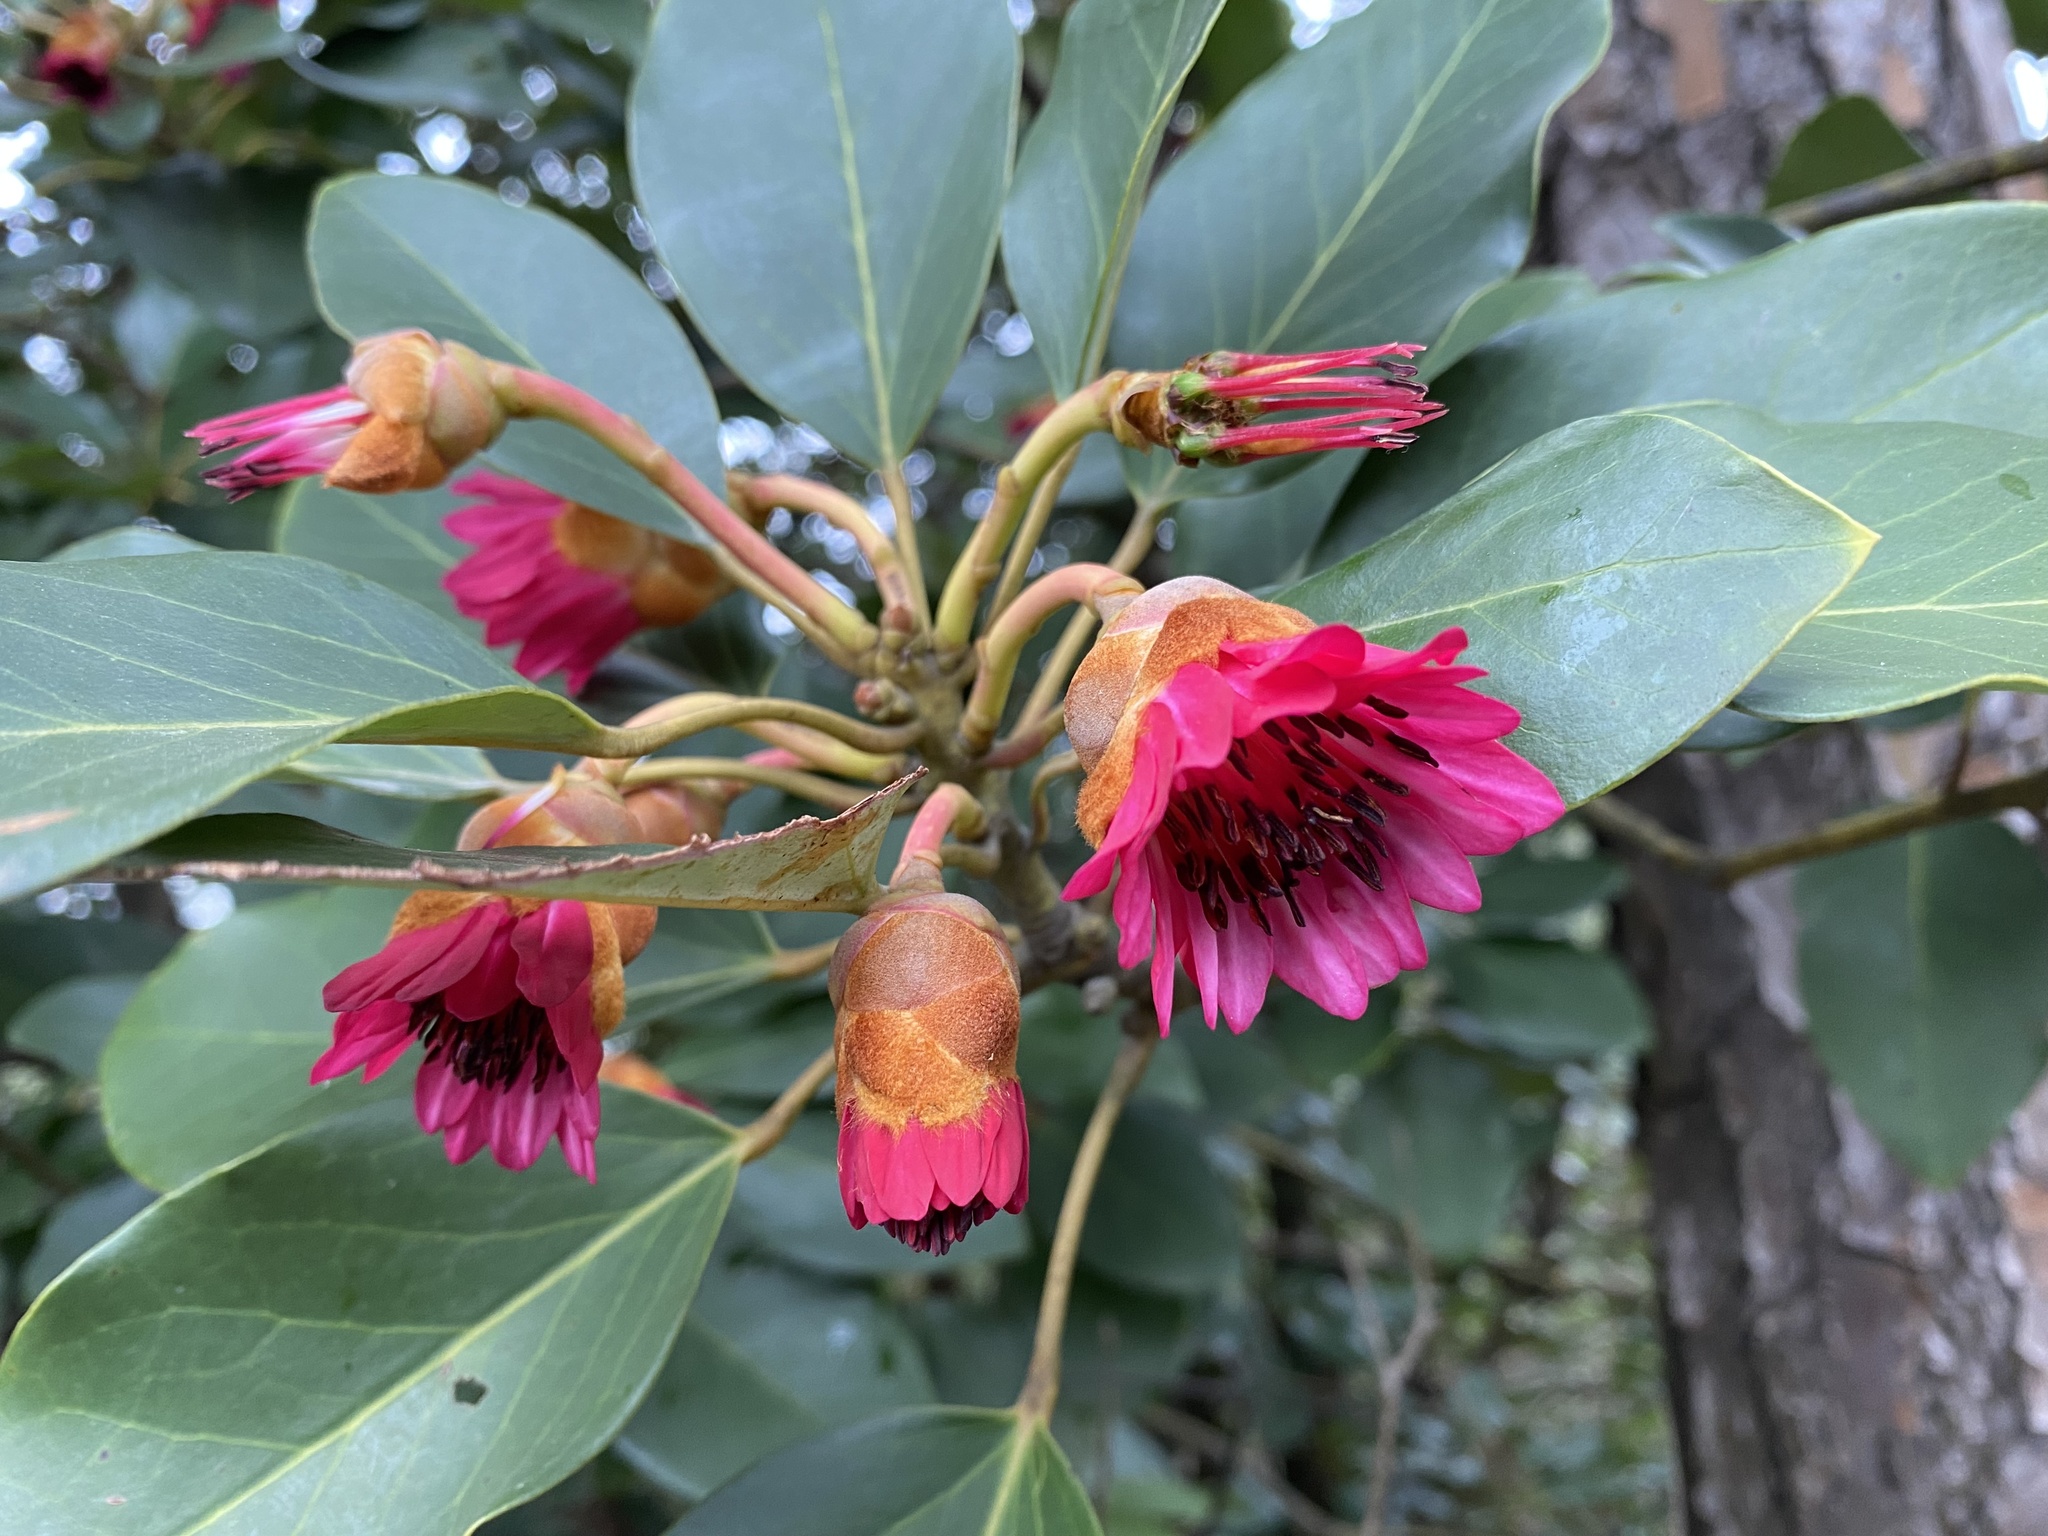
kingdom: Plantae
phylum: Tracheophyta
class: Magnoliopsida
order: Saxifragales
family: Hamamelidaceae
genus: Rhodoleia
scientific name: Rhodoleia championii
